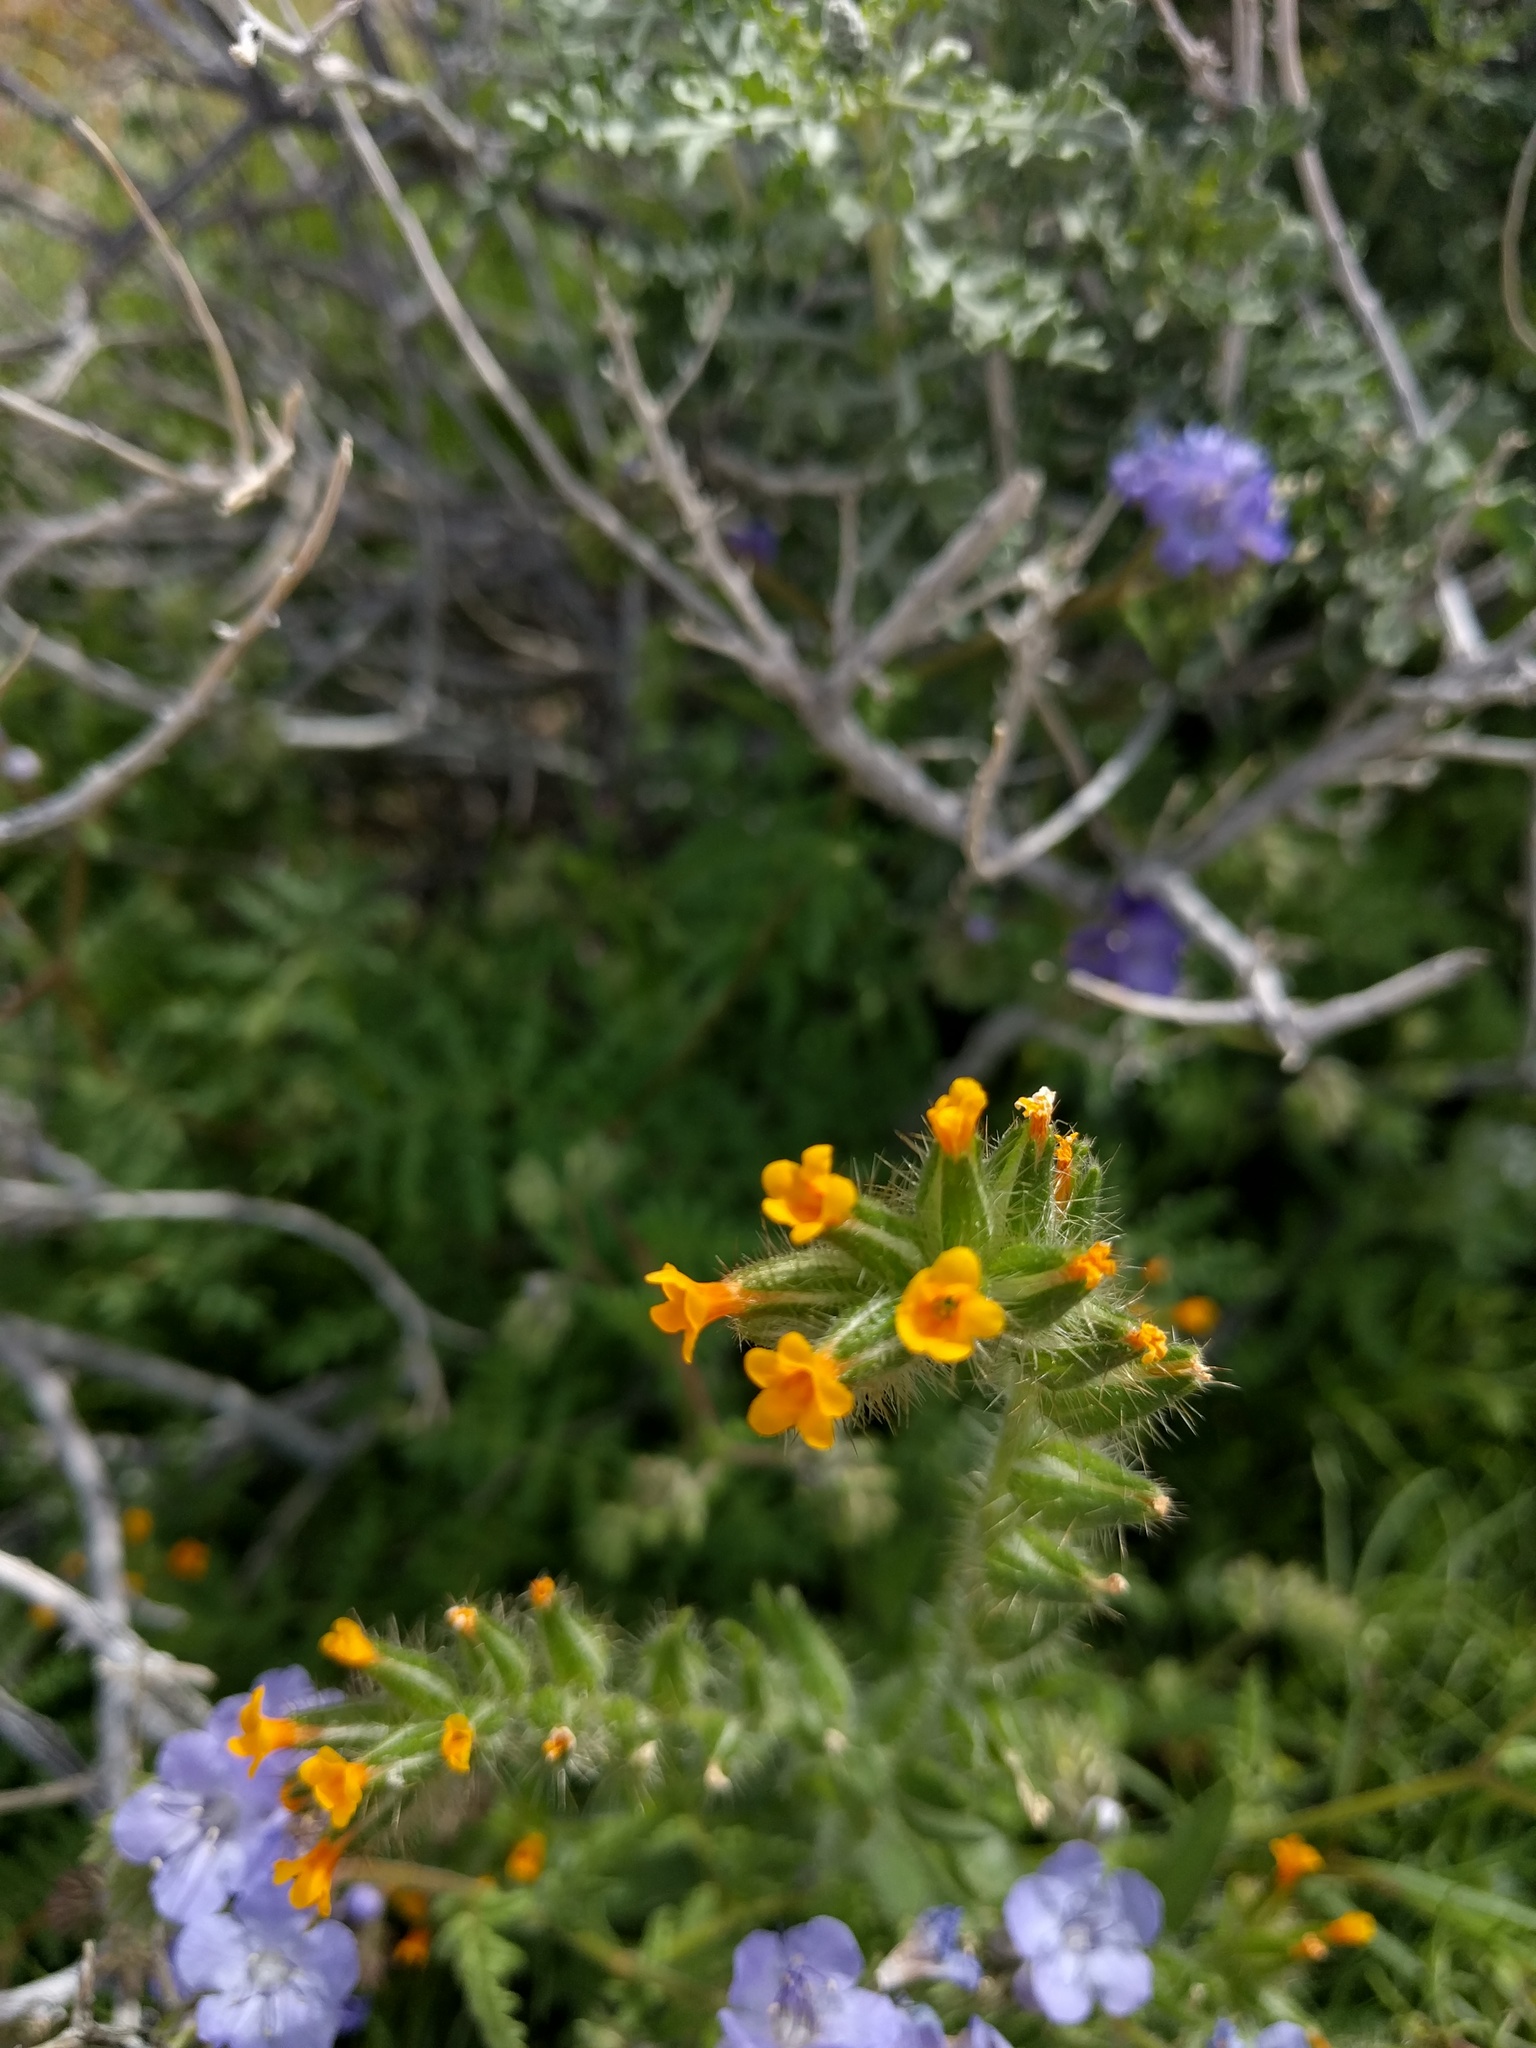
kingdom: Plantae
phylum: Tracheophyta
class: Magnoliopsida
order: Boraginales
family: Boraginaceae
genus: Amsinckia
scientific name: Amsinckia tessellata
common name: Tessellate fiddleneck
